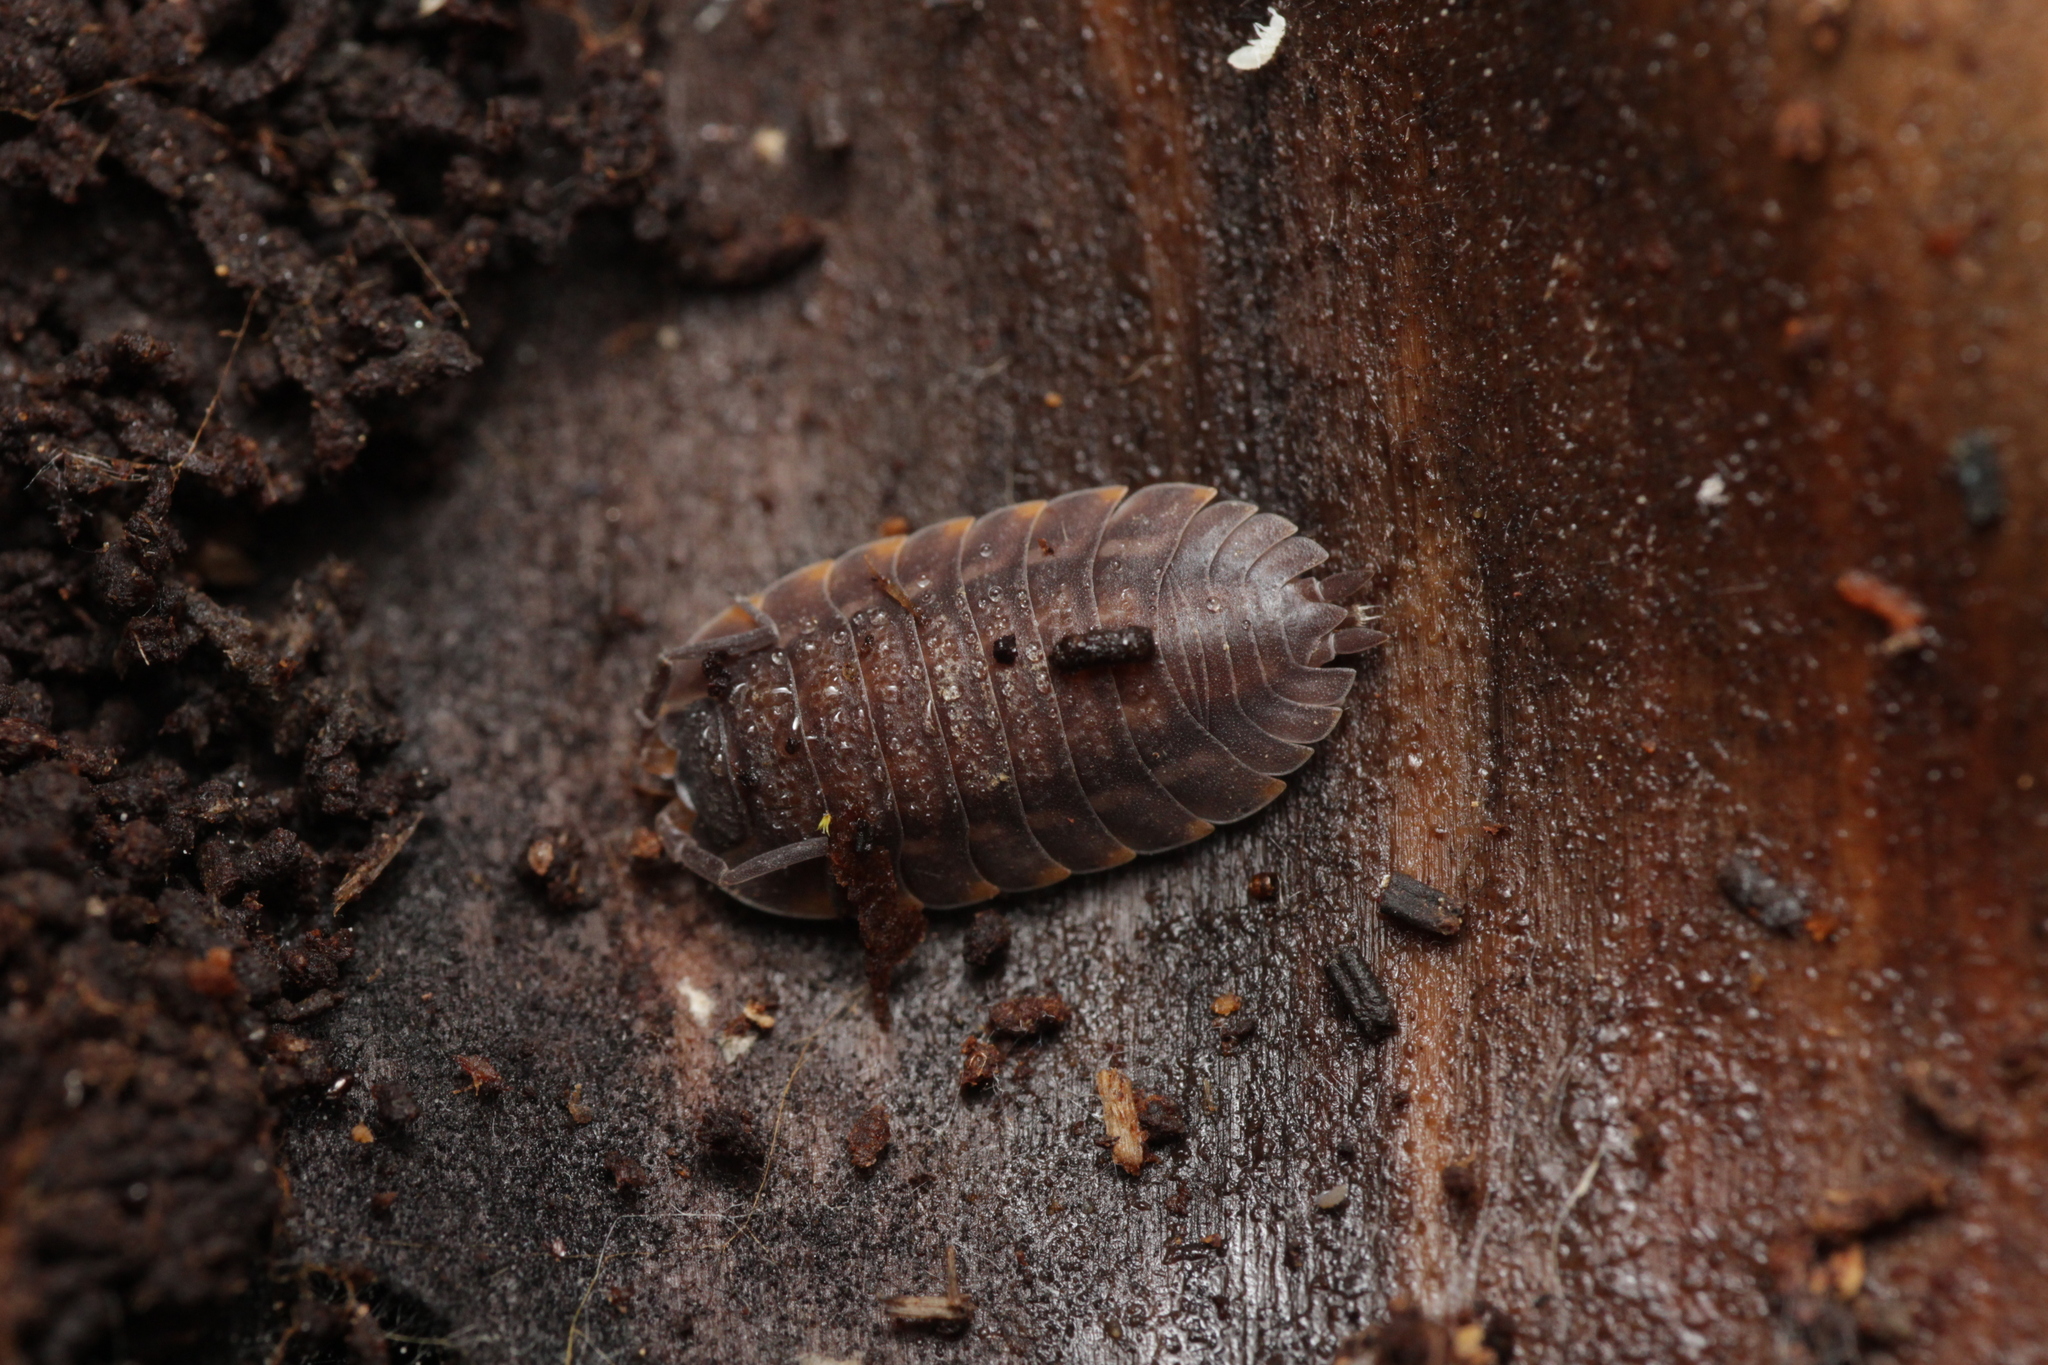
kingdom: Animalia
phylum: Arthropoda
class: Malacostraca
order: Isopoda
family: Trachelipodidae
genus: Trachelipus
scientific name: Trachelipus ratzeburgii
